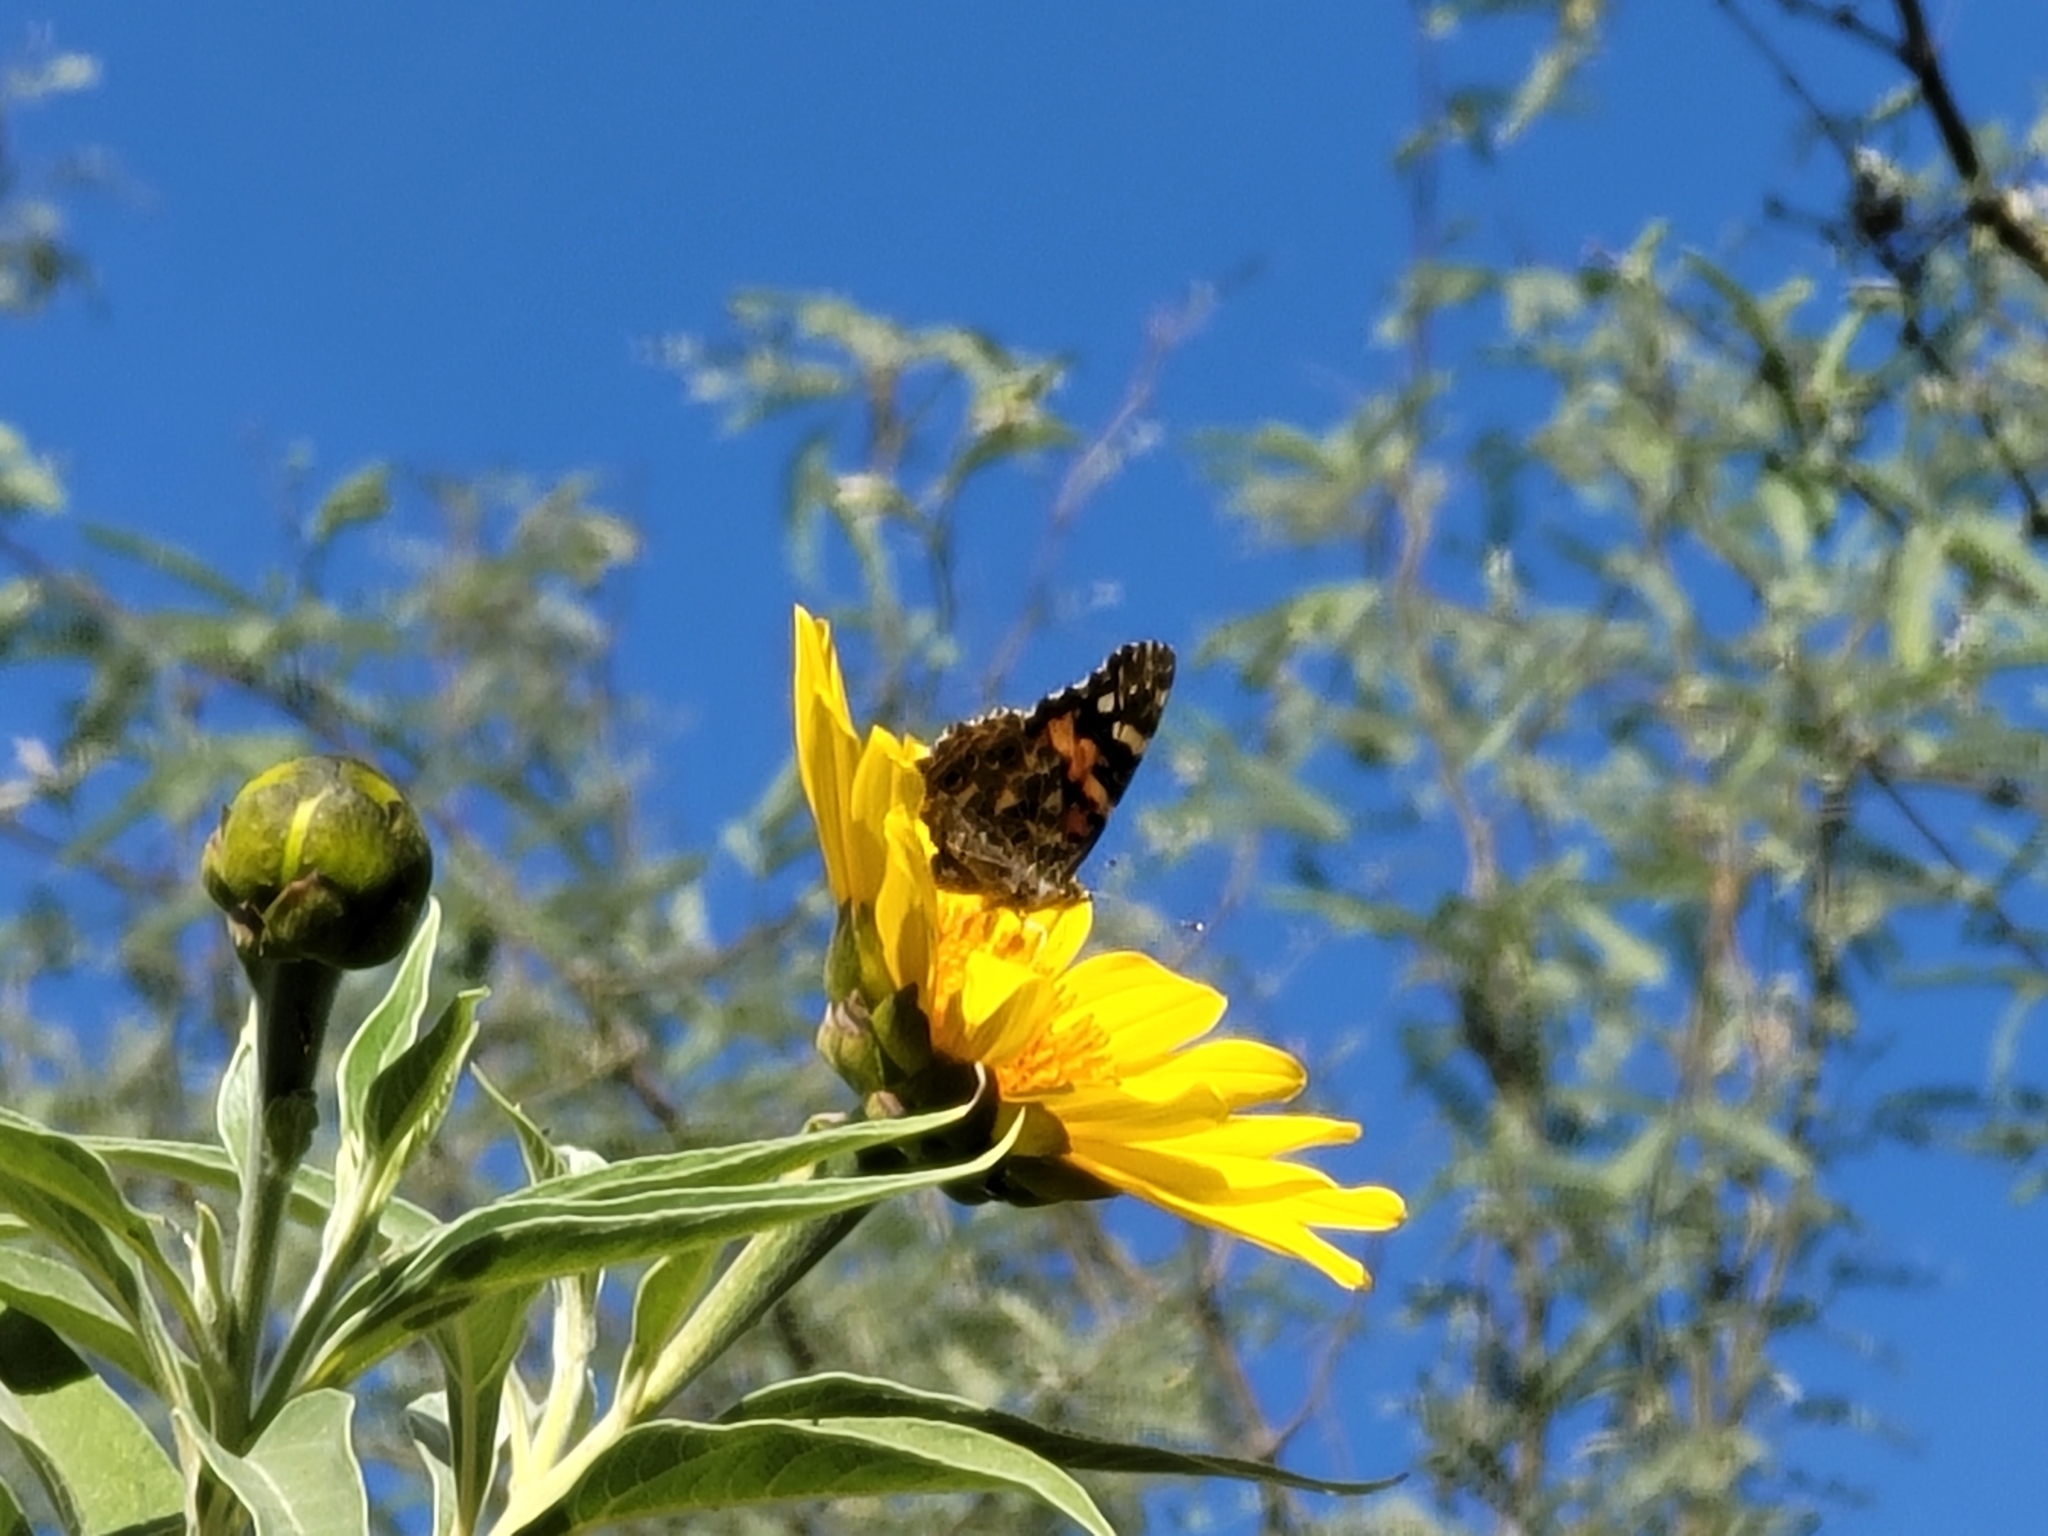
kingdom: Animalia
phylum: Arthropoda
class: Insecta
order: Lepidoptera
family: Nymphalidae
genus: Vanessa
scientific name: Vanessa cardui
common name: Painted lady
